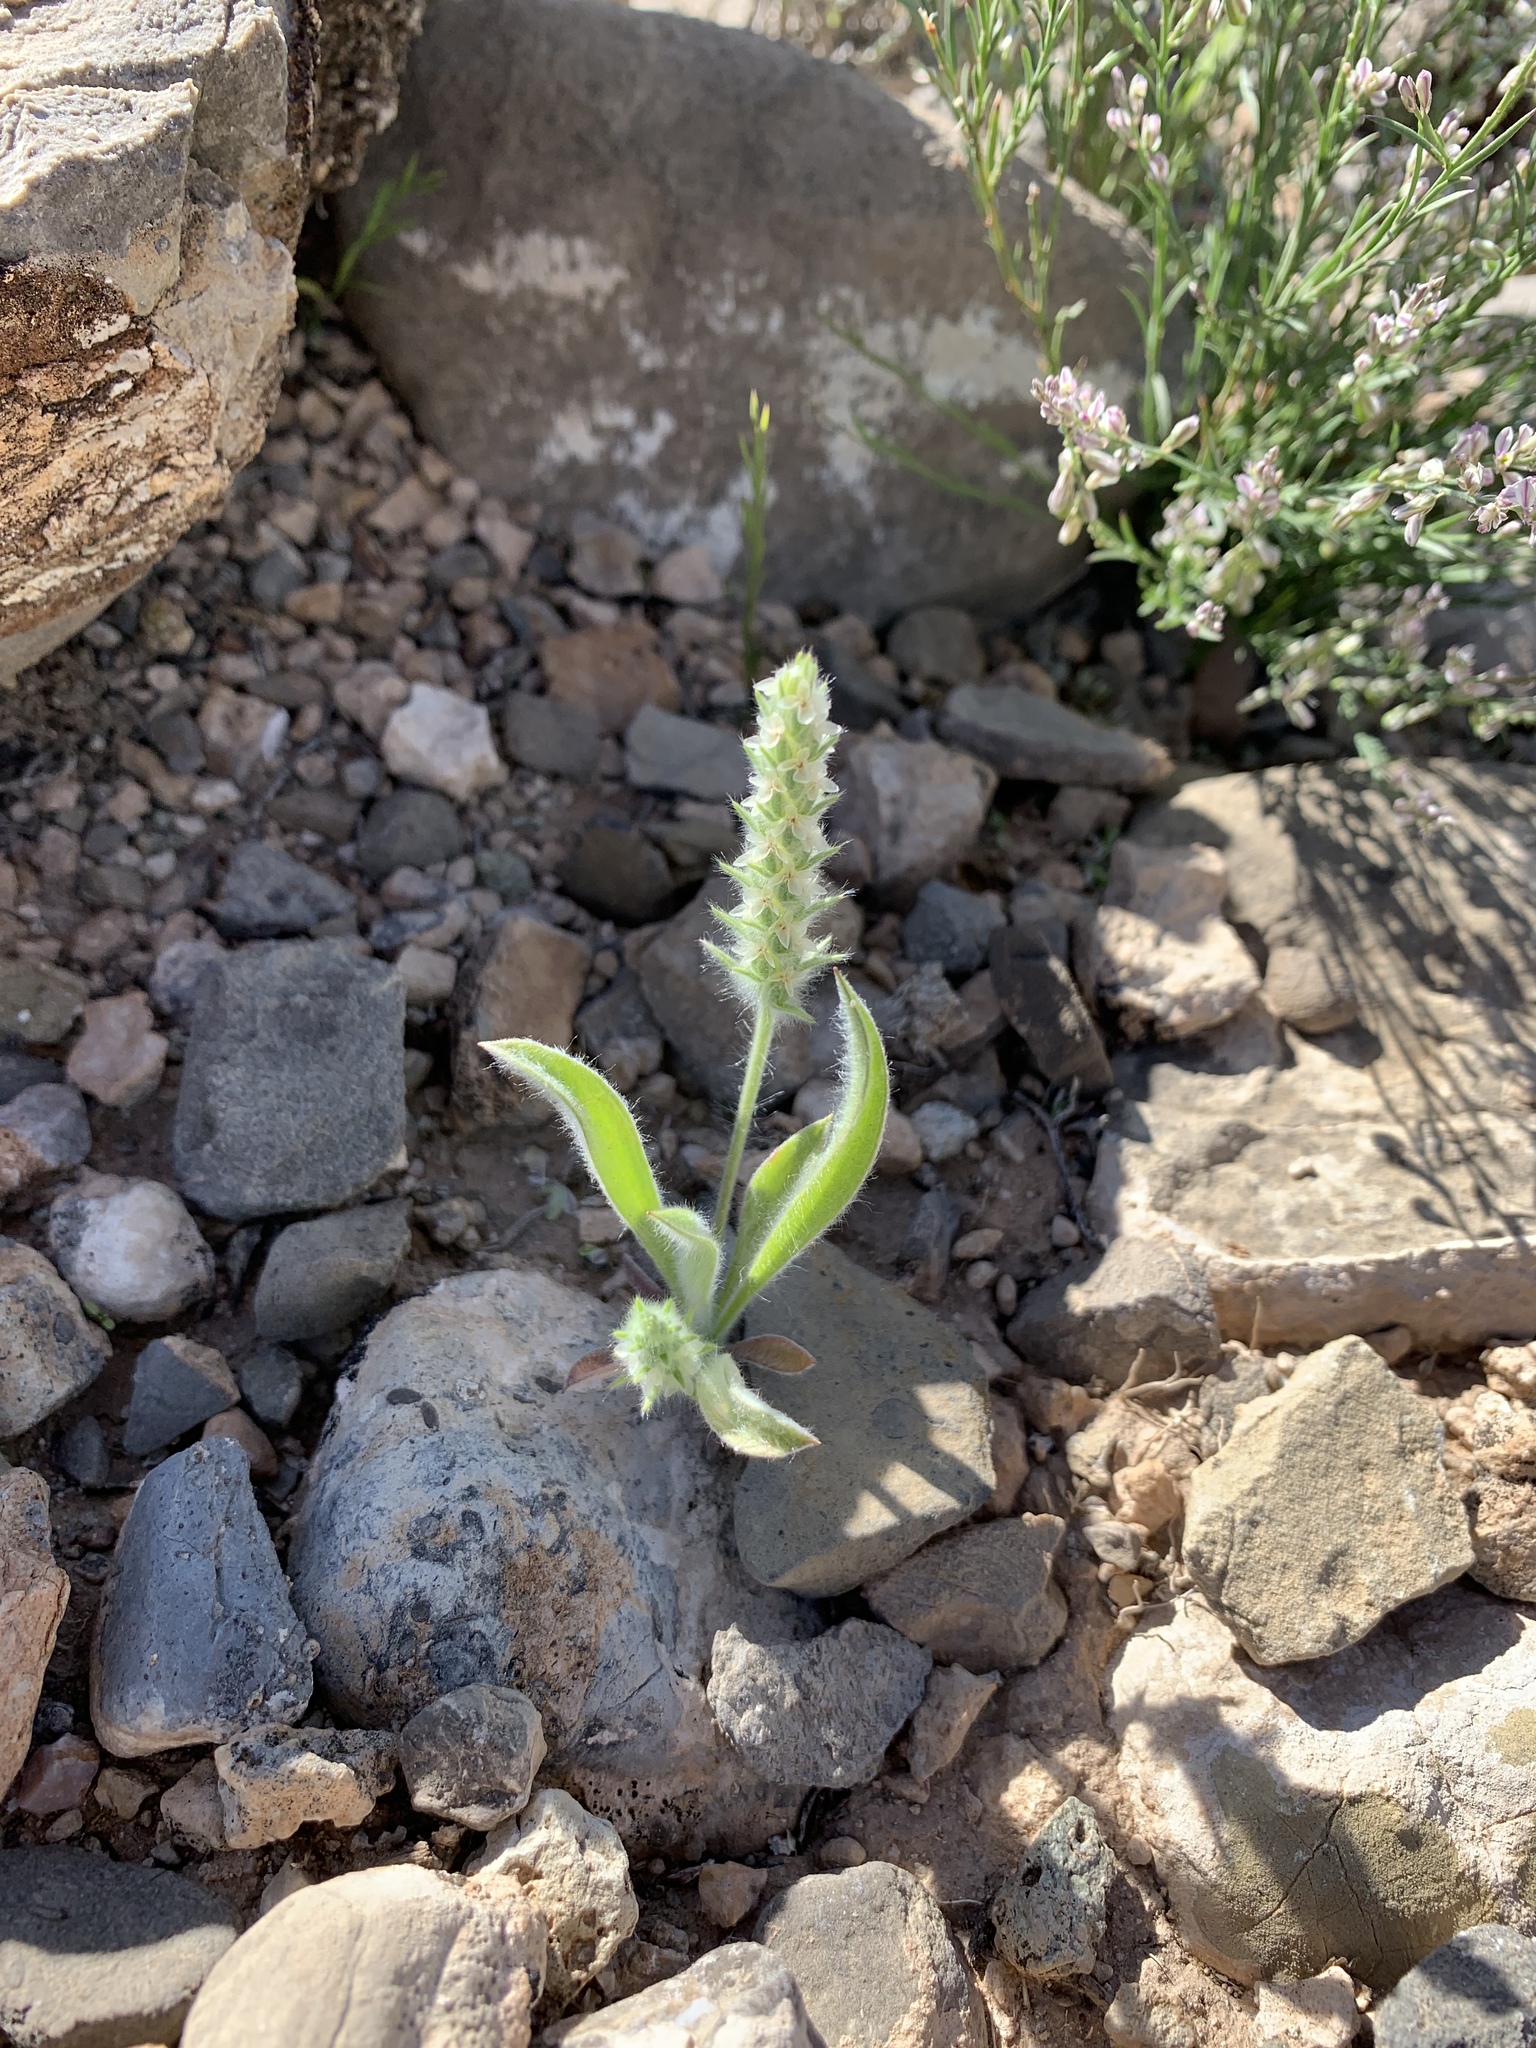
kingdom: Plantae
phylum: Tracheophyta
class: Magnoliopsida
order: Lamiales
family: Plantaginaceae
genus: Plantago
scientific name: Plantago patagonica
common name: Patagonia indian-wheat
